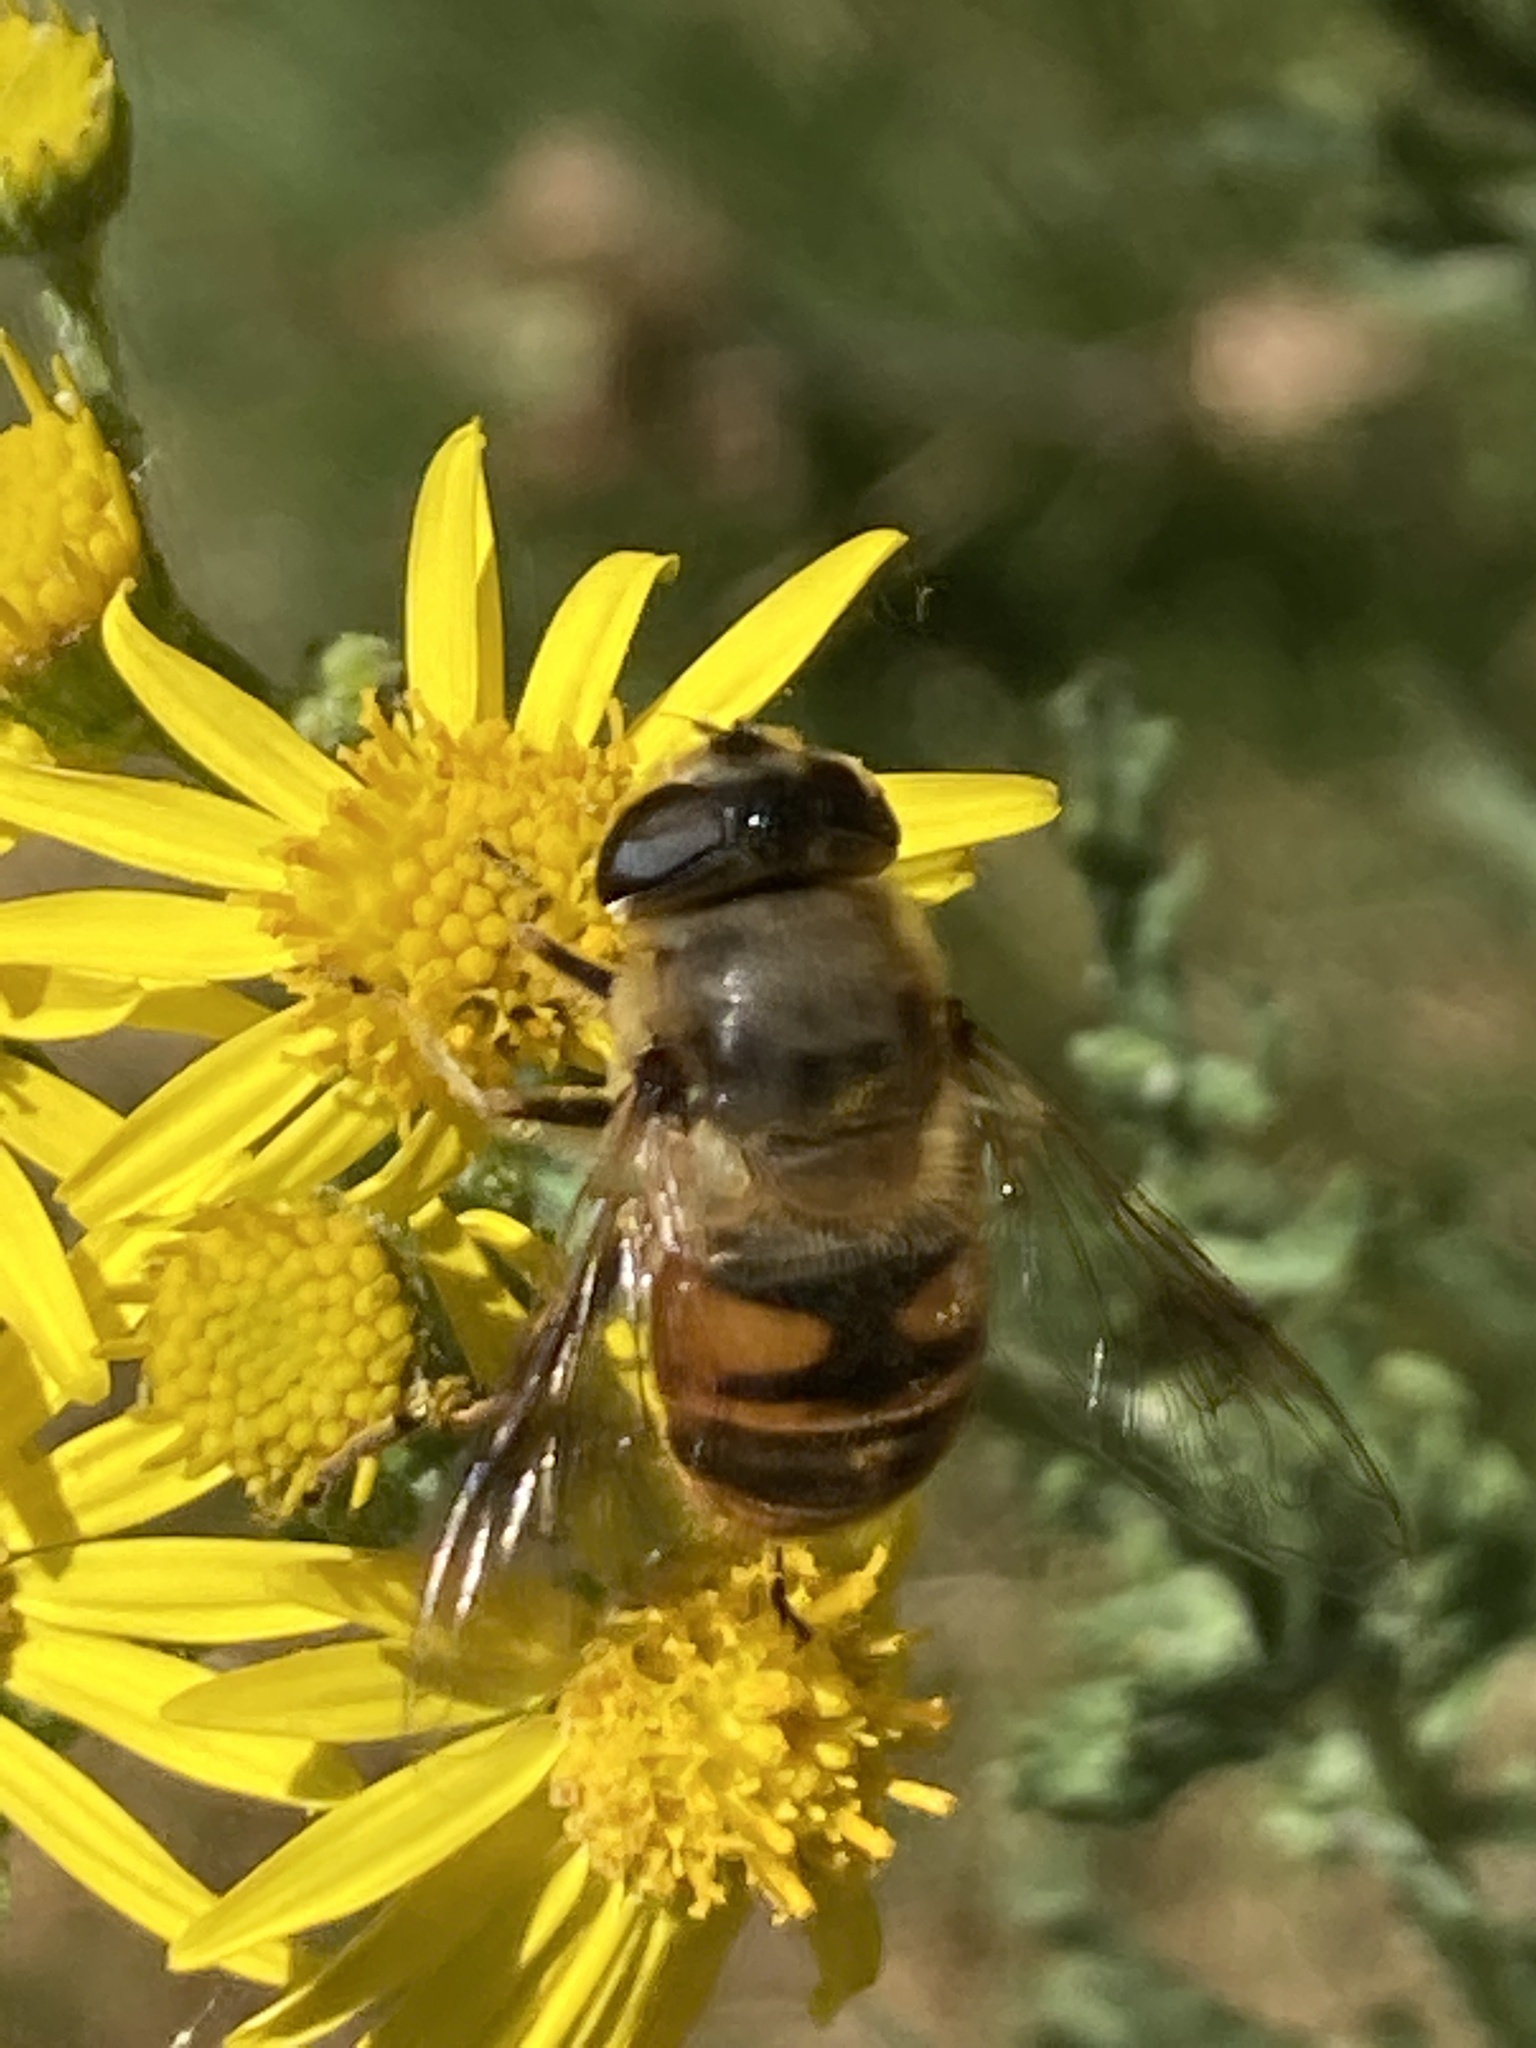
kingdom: Animalia
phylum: Arthropoda
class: Insecta
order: Diptera
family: Syrphidae
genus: Eristalis
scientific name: Eristalis tenax
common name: Drone fly
